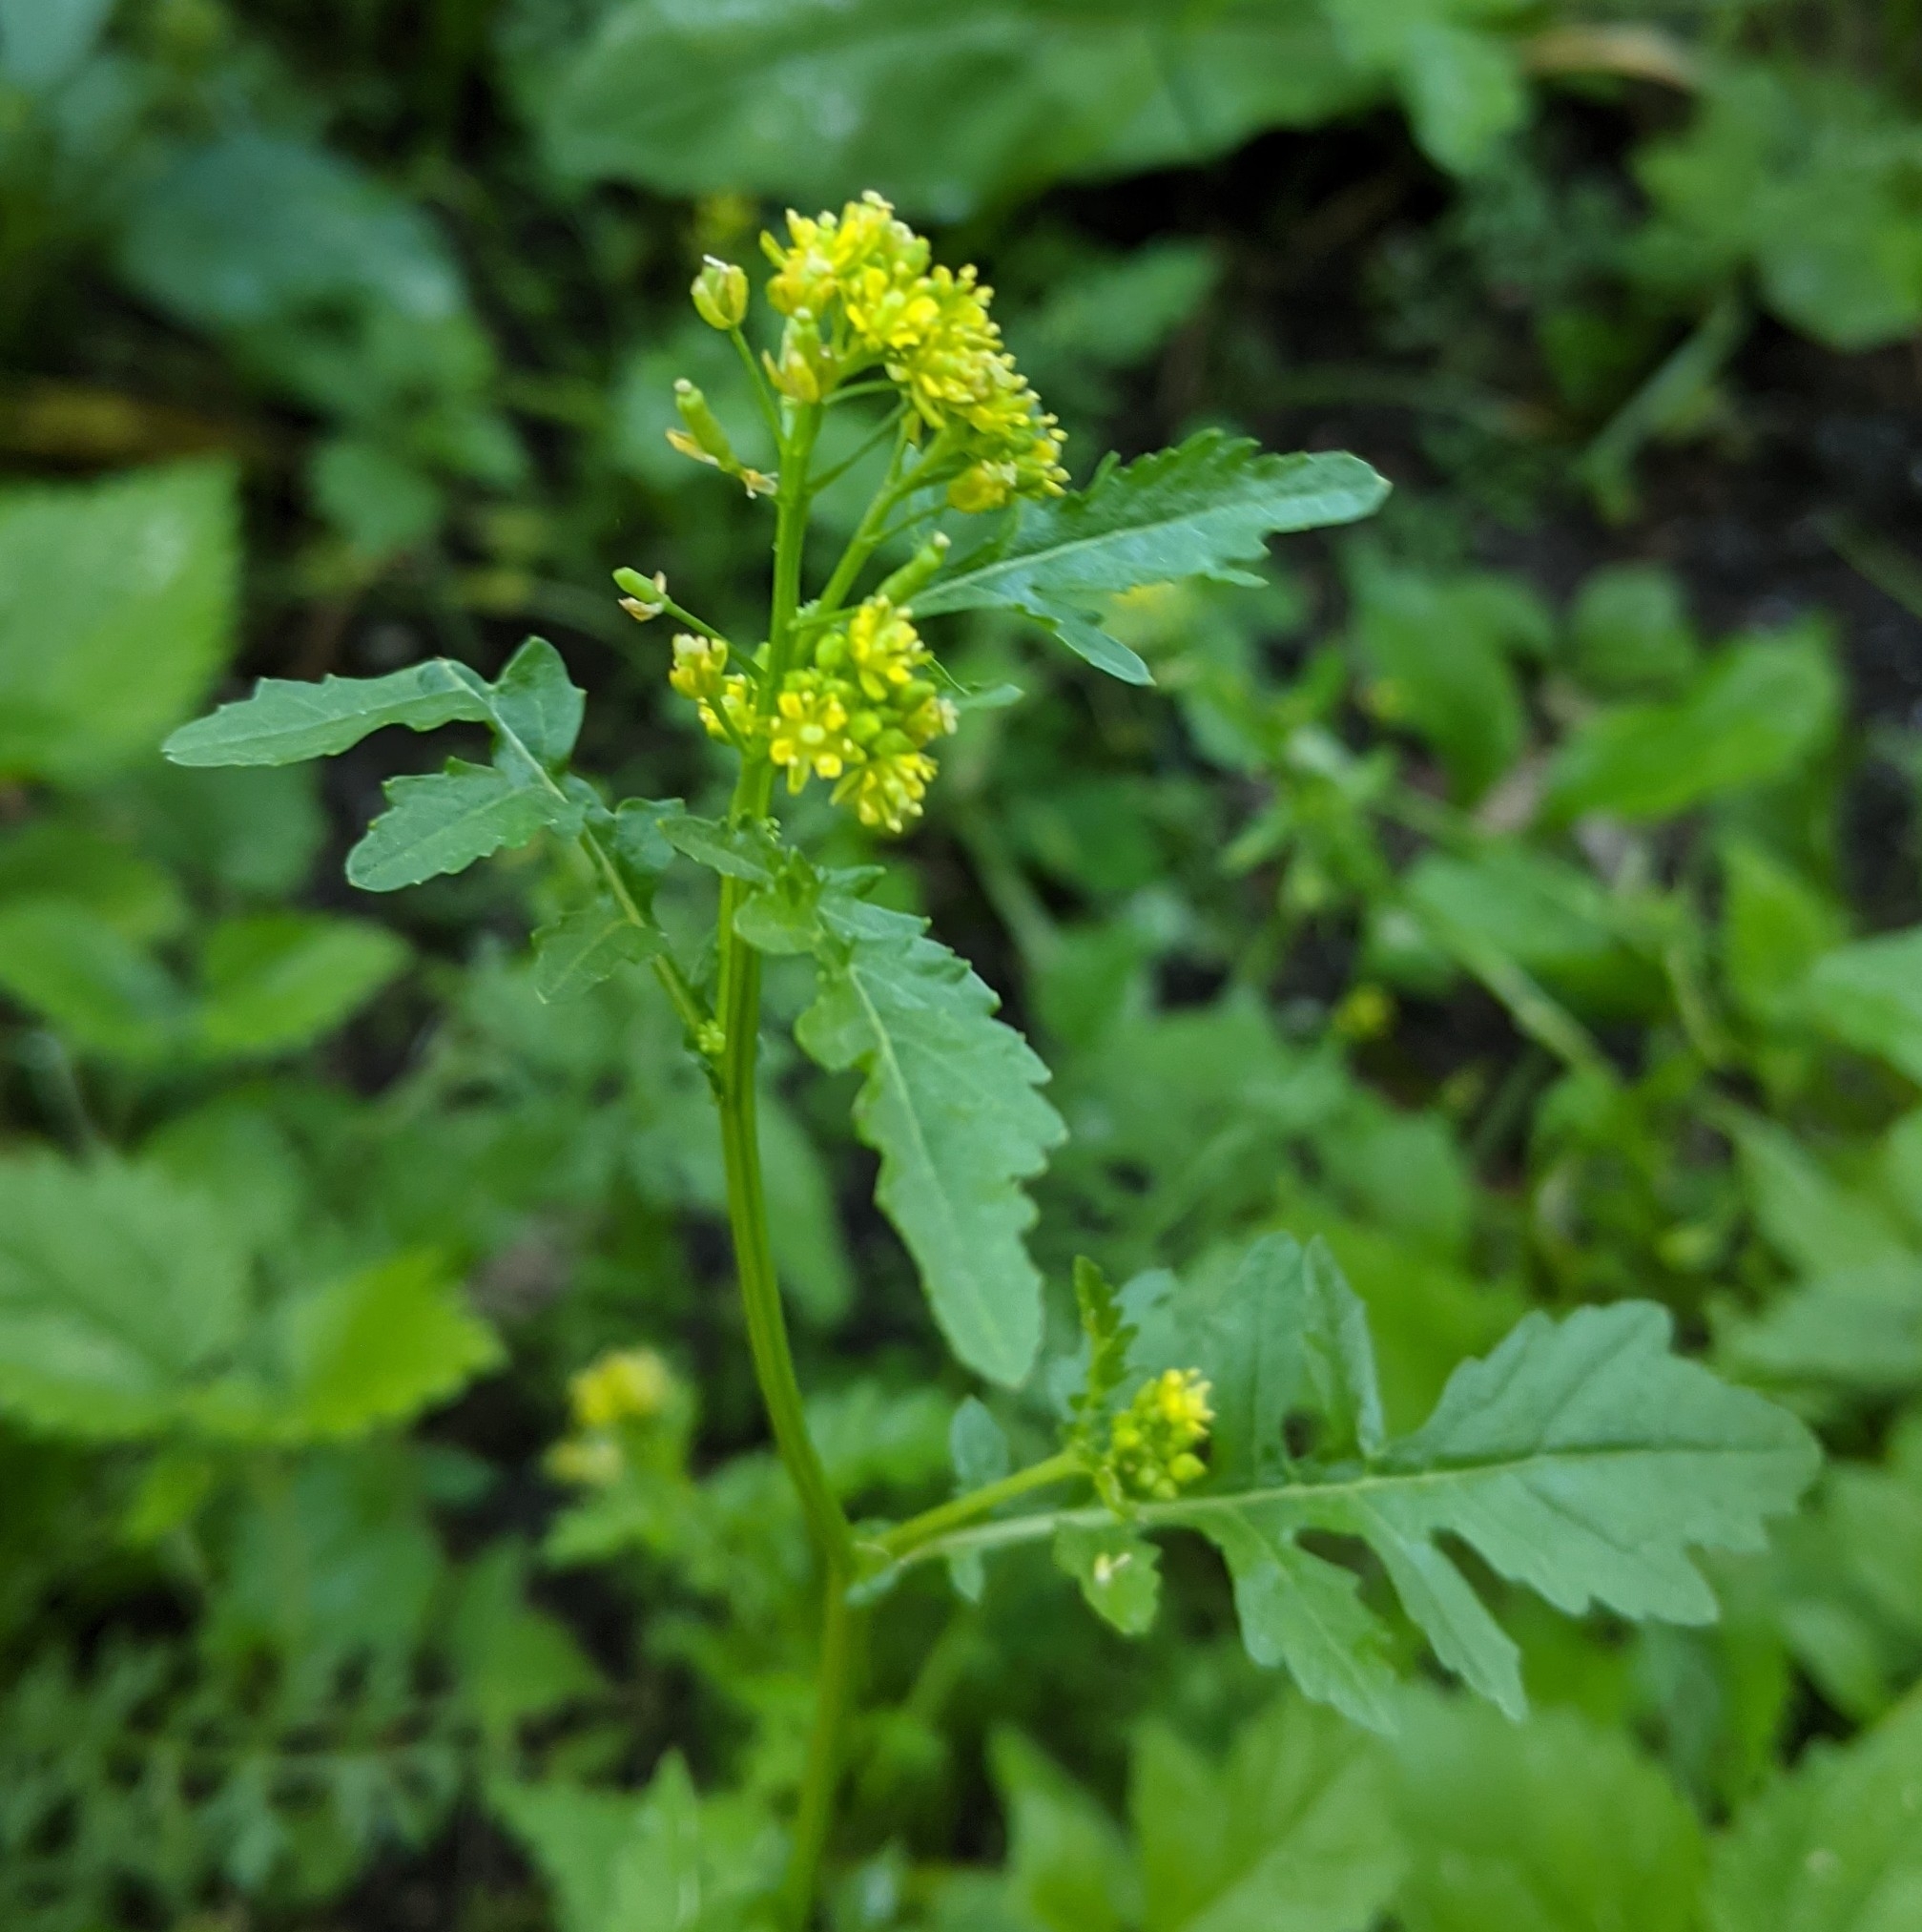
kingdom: Plantae
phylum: Tracheophyta
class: Magnoliopsida
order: Brassicales
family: Brassicaceae
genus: Rorippa
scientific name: Rorippa palustris
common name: Marsh yellow-cress
